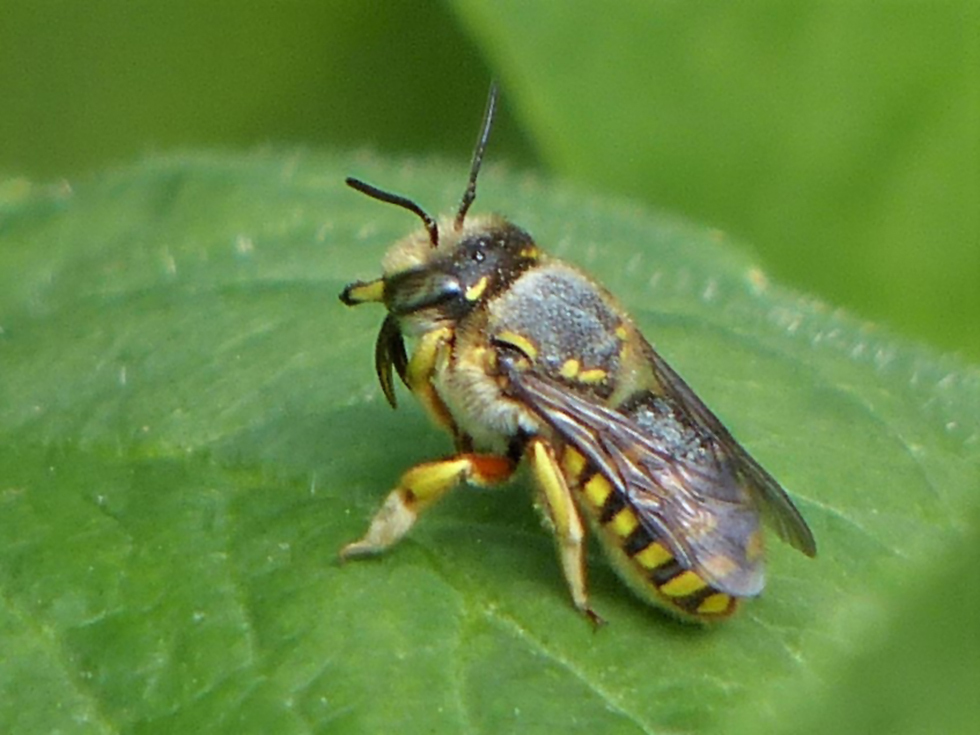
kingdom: Animalia
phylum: Arthropoda
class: Insecta
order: Hymenoptera
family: Megachilidae
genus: Anthidium
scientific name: Anthidium manicatum
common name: Wool carder bee
